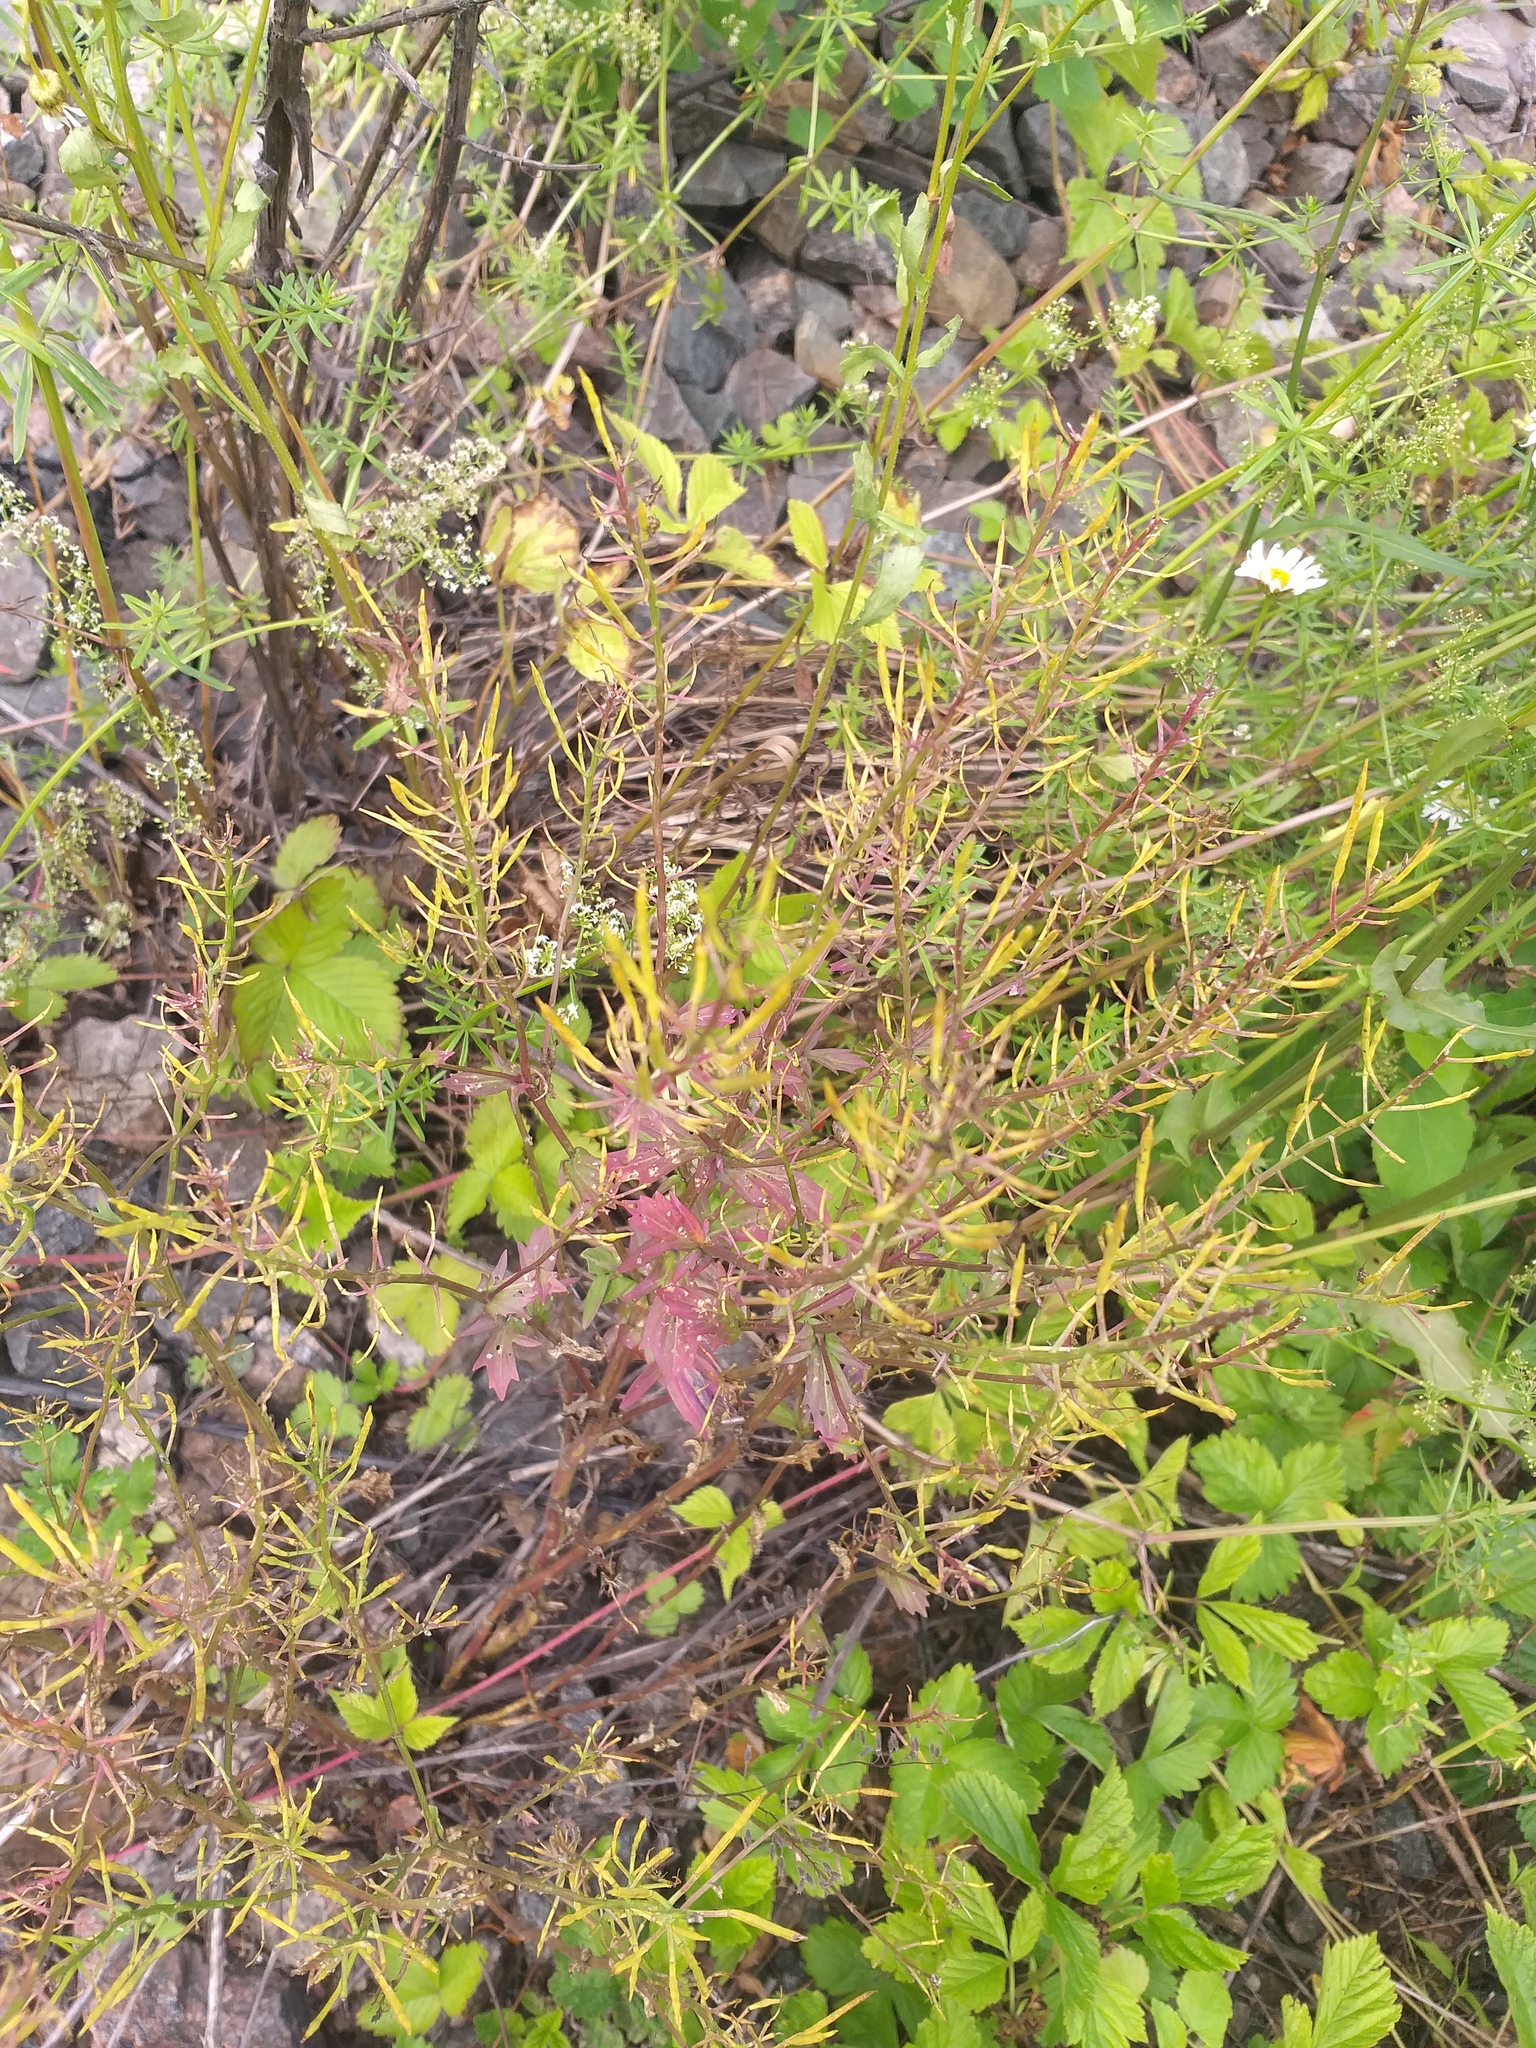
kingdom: Plantae
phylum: Tracheophyta
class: Magnoliopsida
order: Brassicales
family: Brassicaceae
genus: Barbarea
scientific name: Barbarea vulgaris
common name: Cressy-greens
